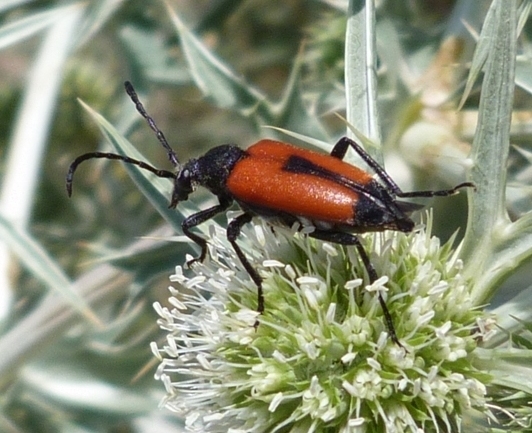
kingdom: Animalia
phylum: Arthropoda
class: Insecta
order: Coleoptera
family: Cerambycidae
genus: Stictoleptura
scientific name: Stictoleptura cordigera
